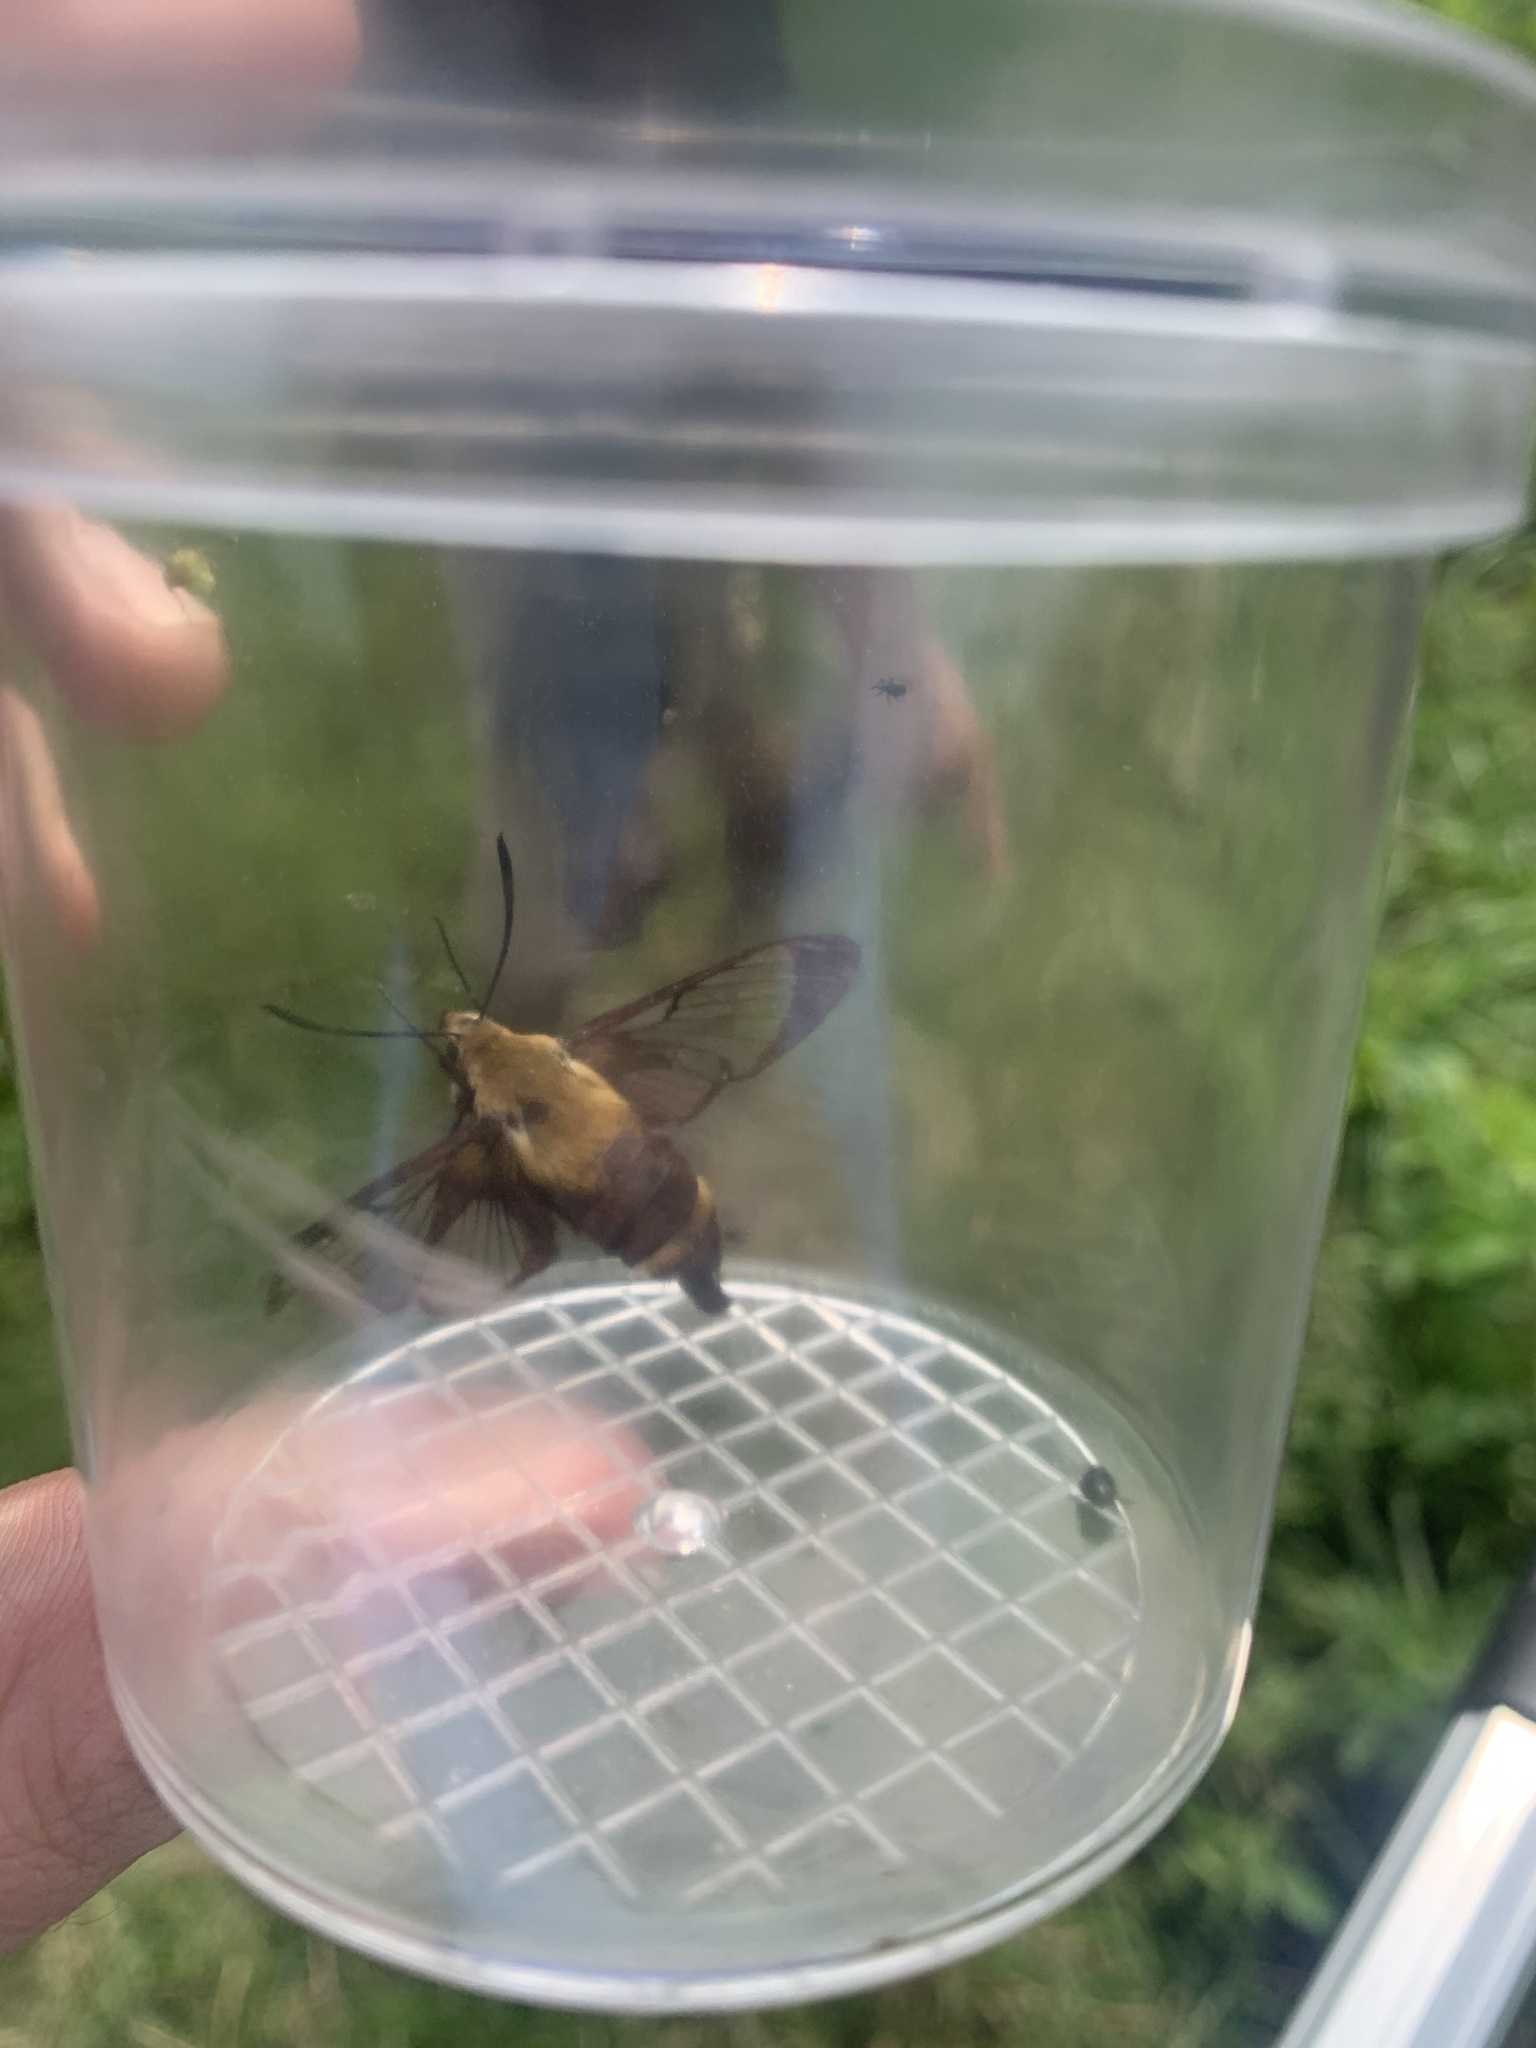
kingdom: Animalia
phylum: Arthropoda
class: Insecta
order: Lepidoptera
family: Sphingidae
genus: Hemaris
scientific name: Hemaris diffinis
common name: Bumblebee moth
